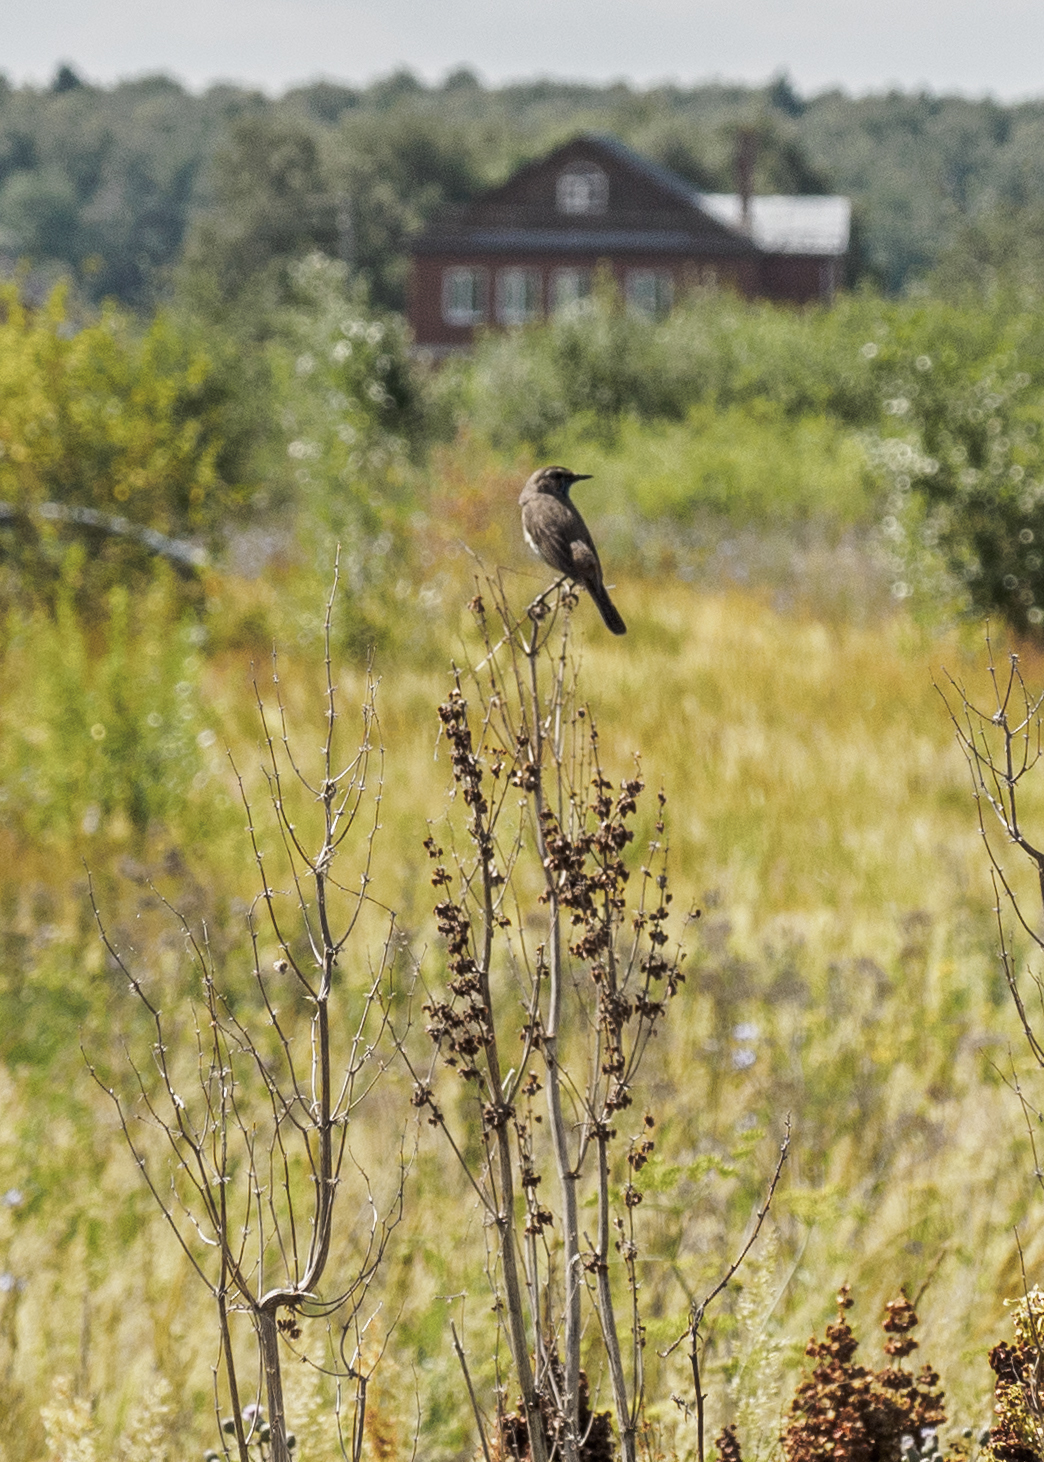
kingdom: Animalia
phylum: Chordata
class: Aves
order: Passeriformes
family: Muscicapidae
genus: Luscinia
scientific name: Luscinia svecica
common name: Bluethroat
